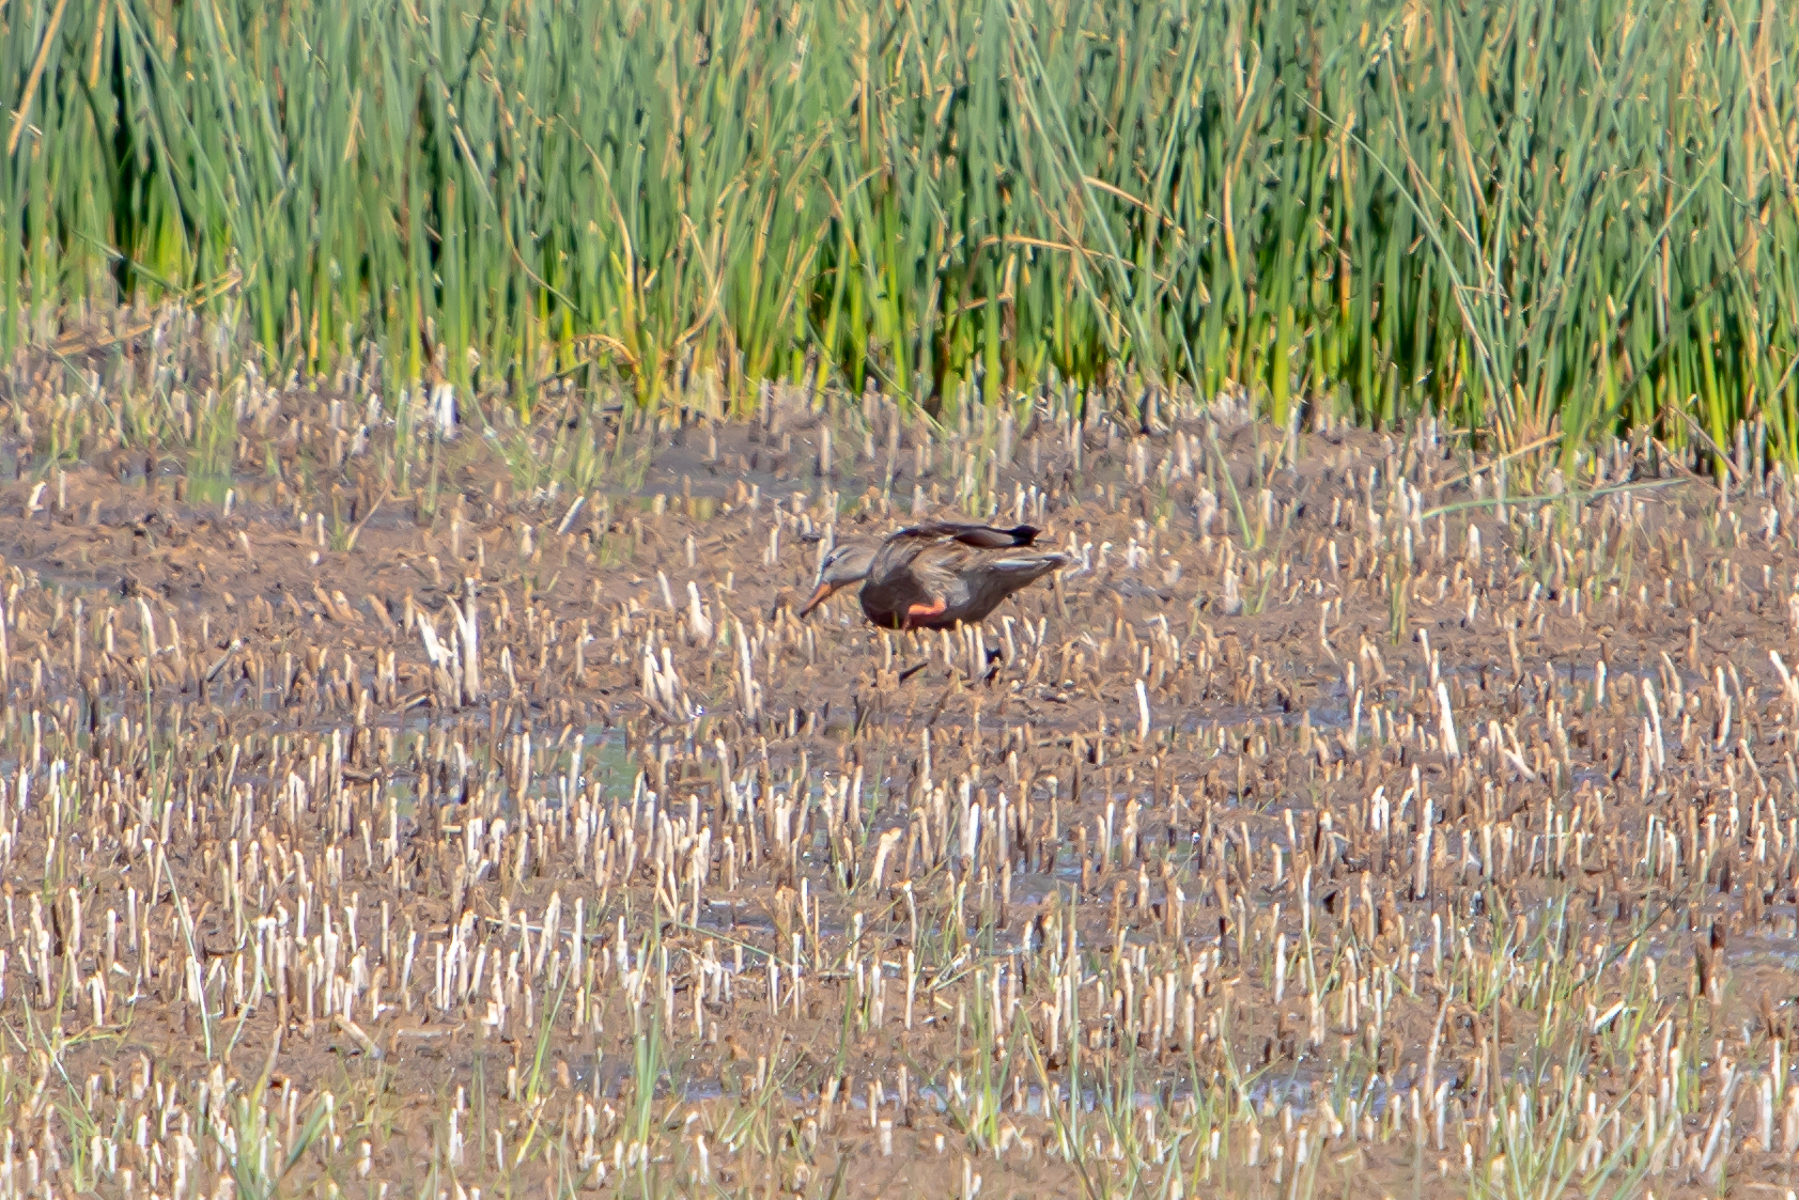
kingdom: Animalia
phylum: Chordata
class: Aves
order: Anseriformes
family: Anatidae
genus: Anas
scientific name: Anas platyrhynchos
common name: Mallard
